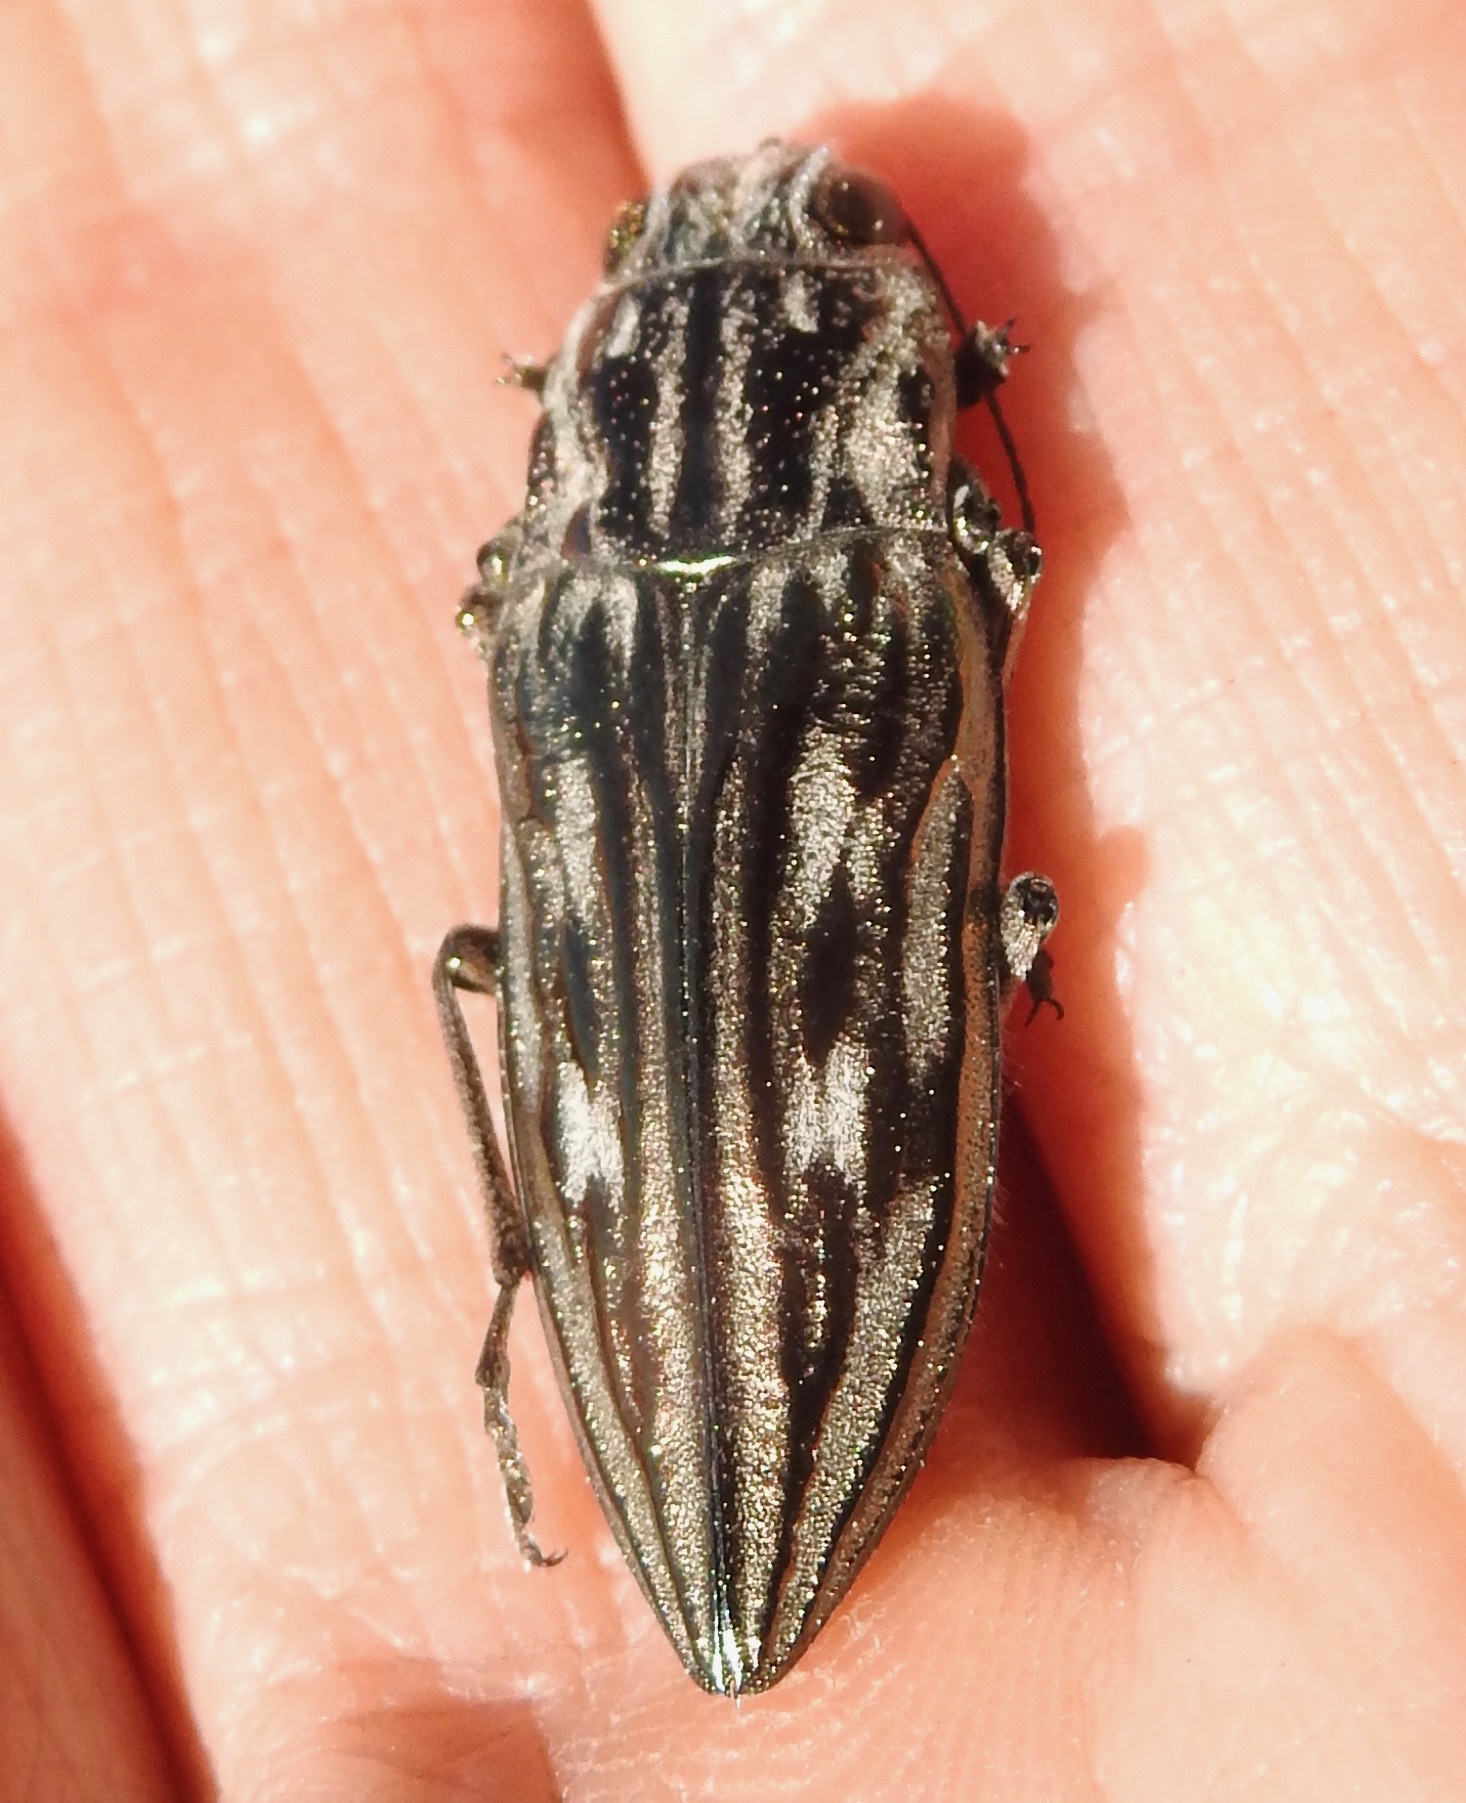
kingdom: Animalia
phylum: Arthropoda
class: Insecta
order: Coleoptera
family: Buprestidae
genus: Chalcophora
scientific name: Chalcophora georgiana
